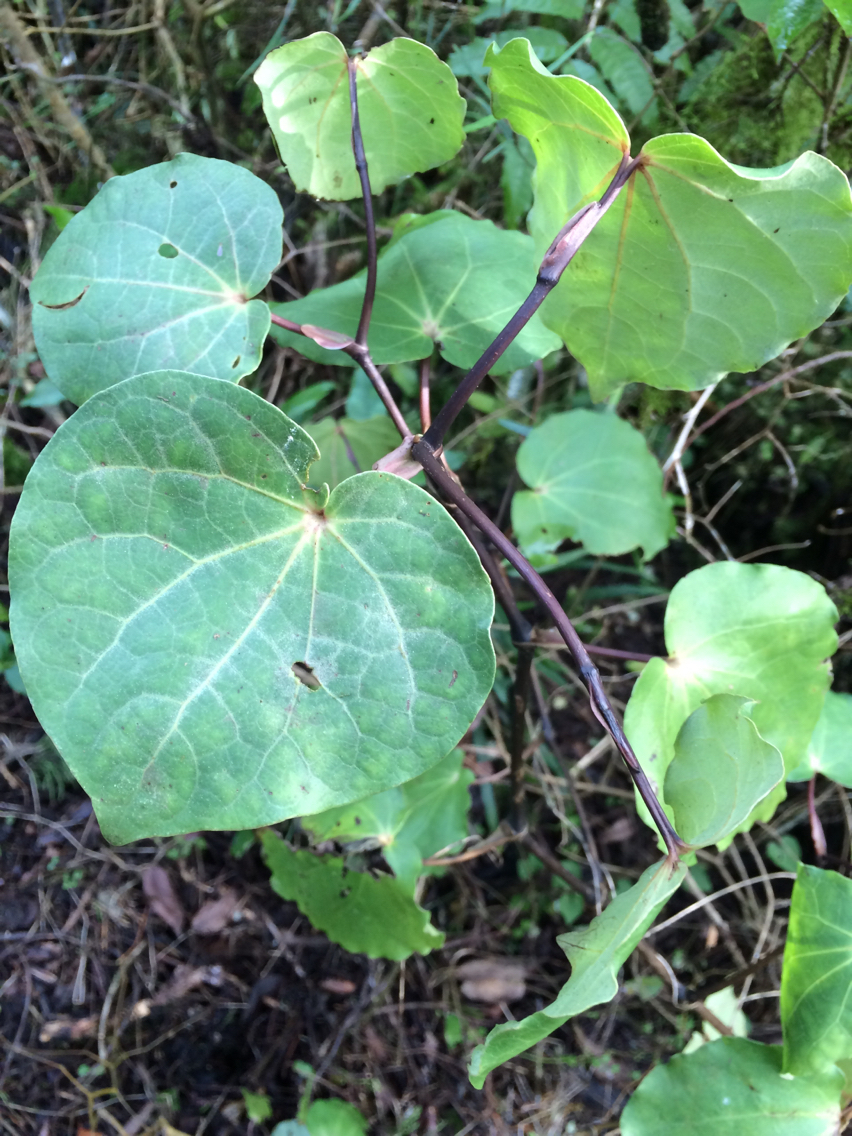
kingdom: Plantae
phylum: Tracheophyta
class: Magnoliopsida
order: Piperales
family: Piperaceae
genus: Macropiper
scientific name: Macropiper excelsum
